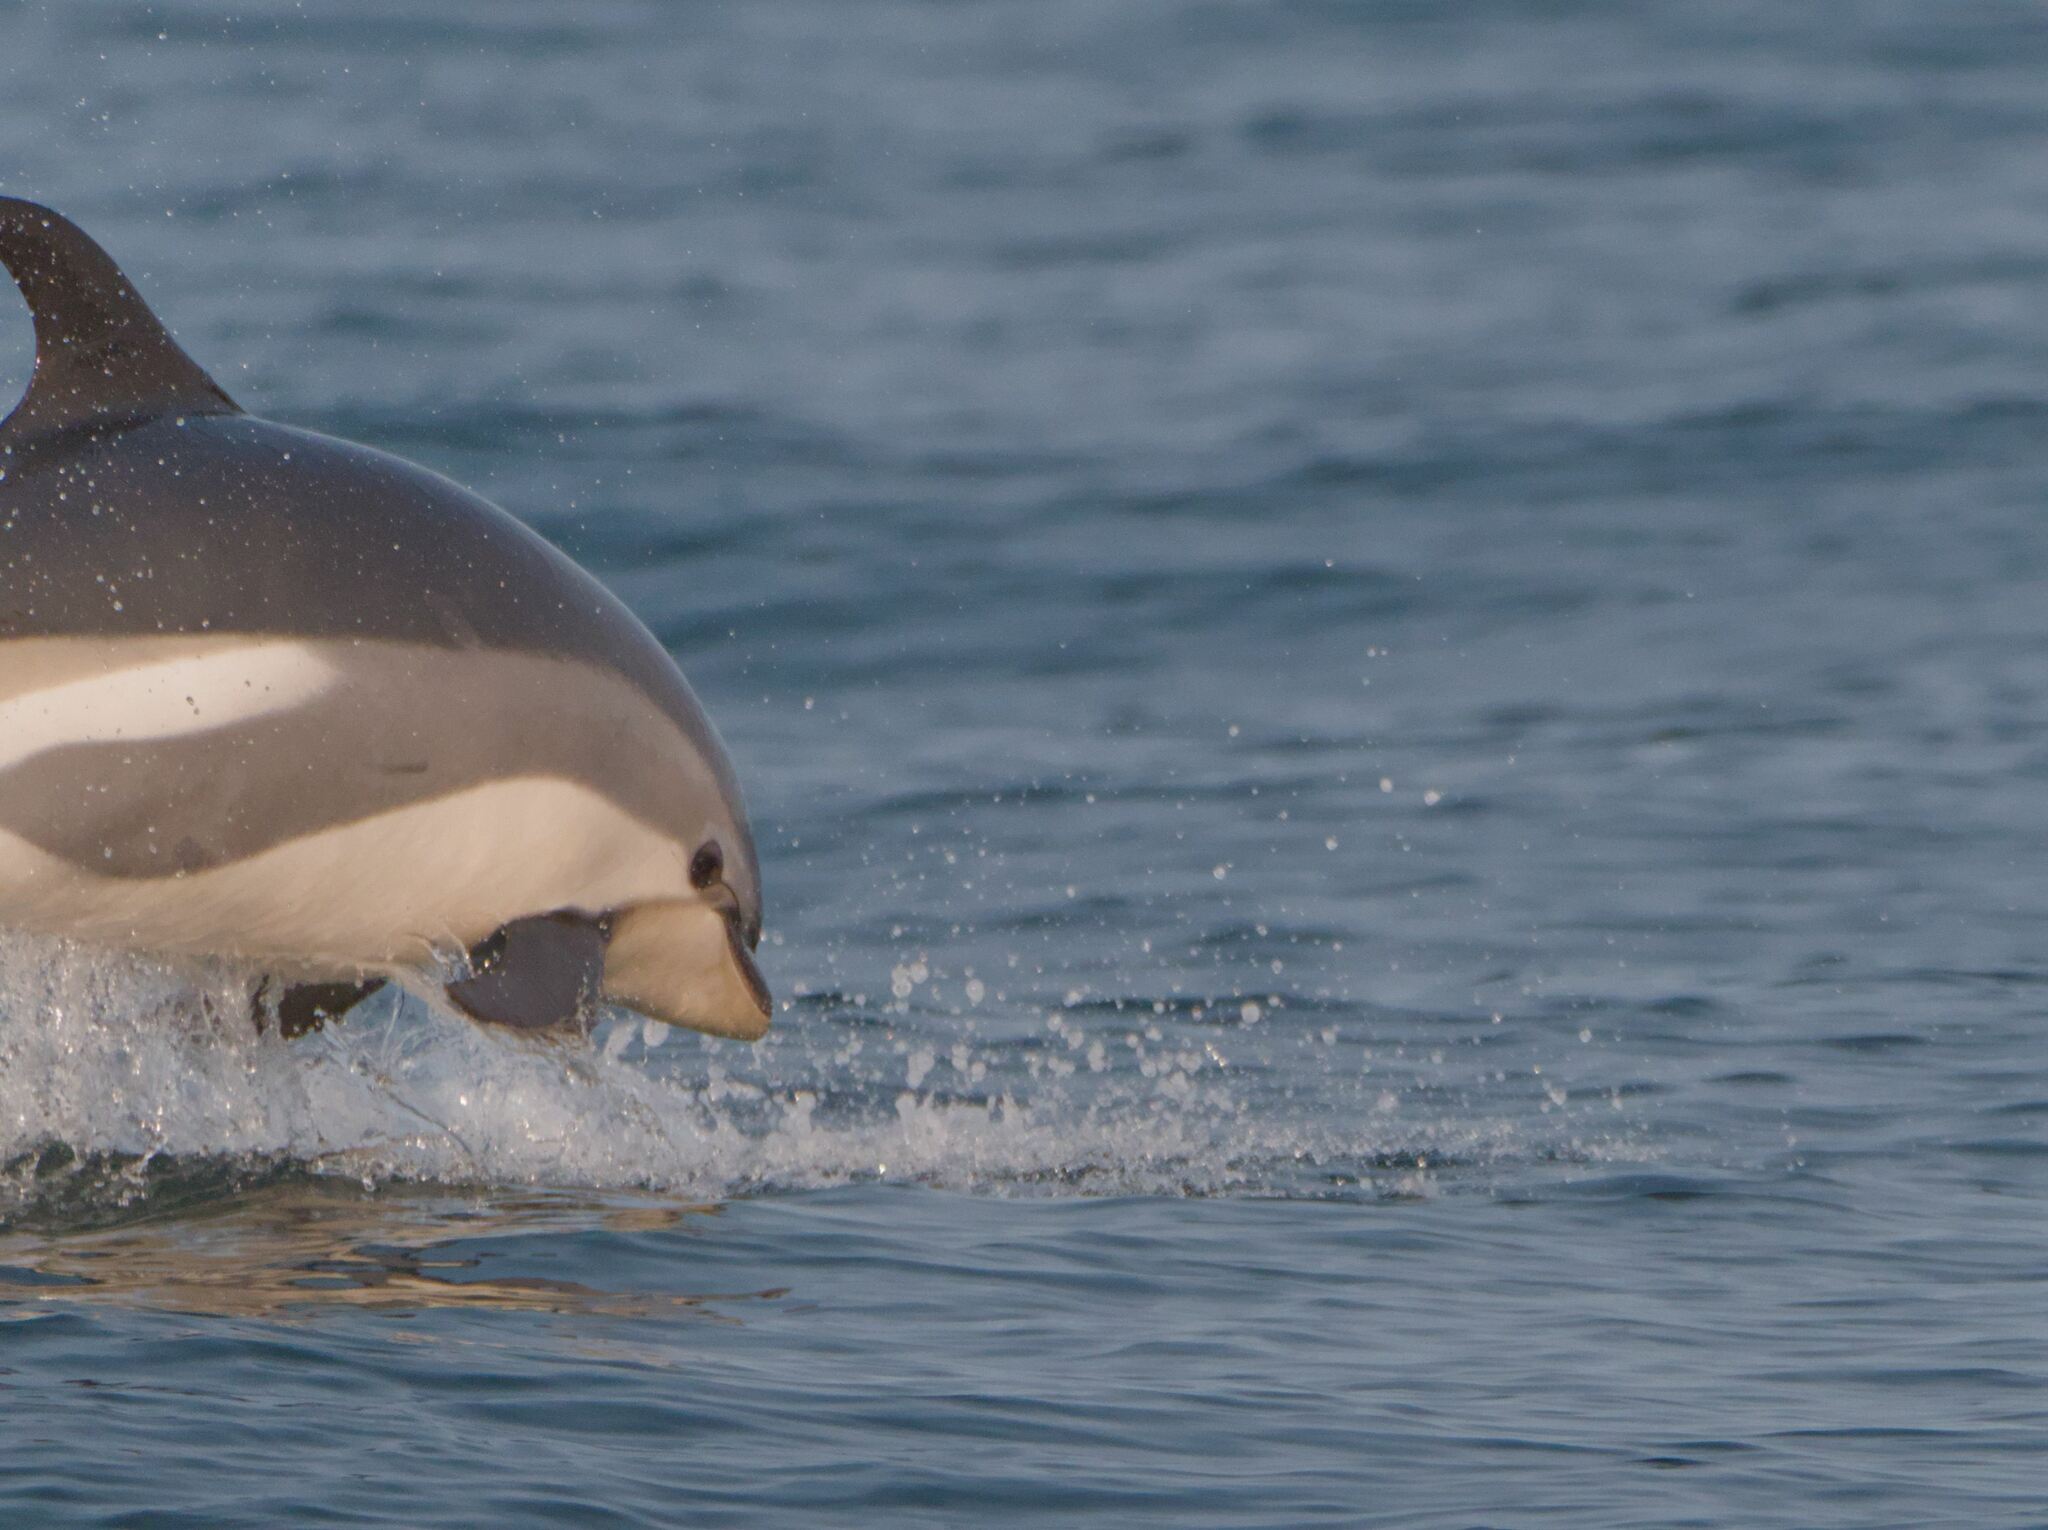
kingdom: Animalia
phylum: Chordata
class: Mammalia
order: Cetacea
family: Delphinidae
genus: Lagenorhynchus
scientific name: Lagenorhynchus acutus
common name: Atlantic white-sided dolphin
